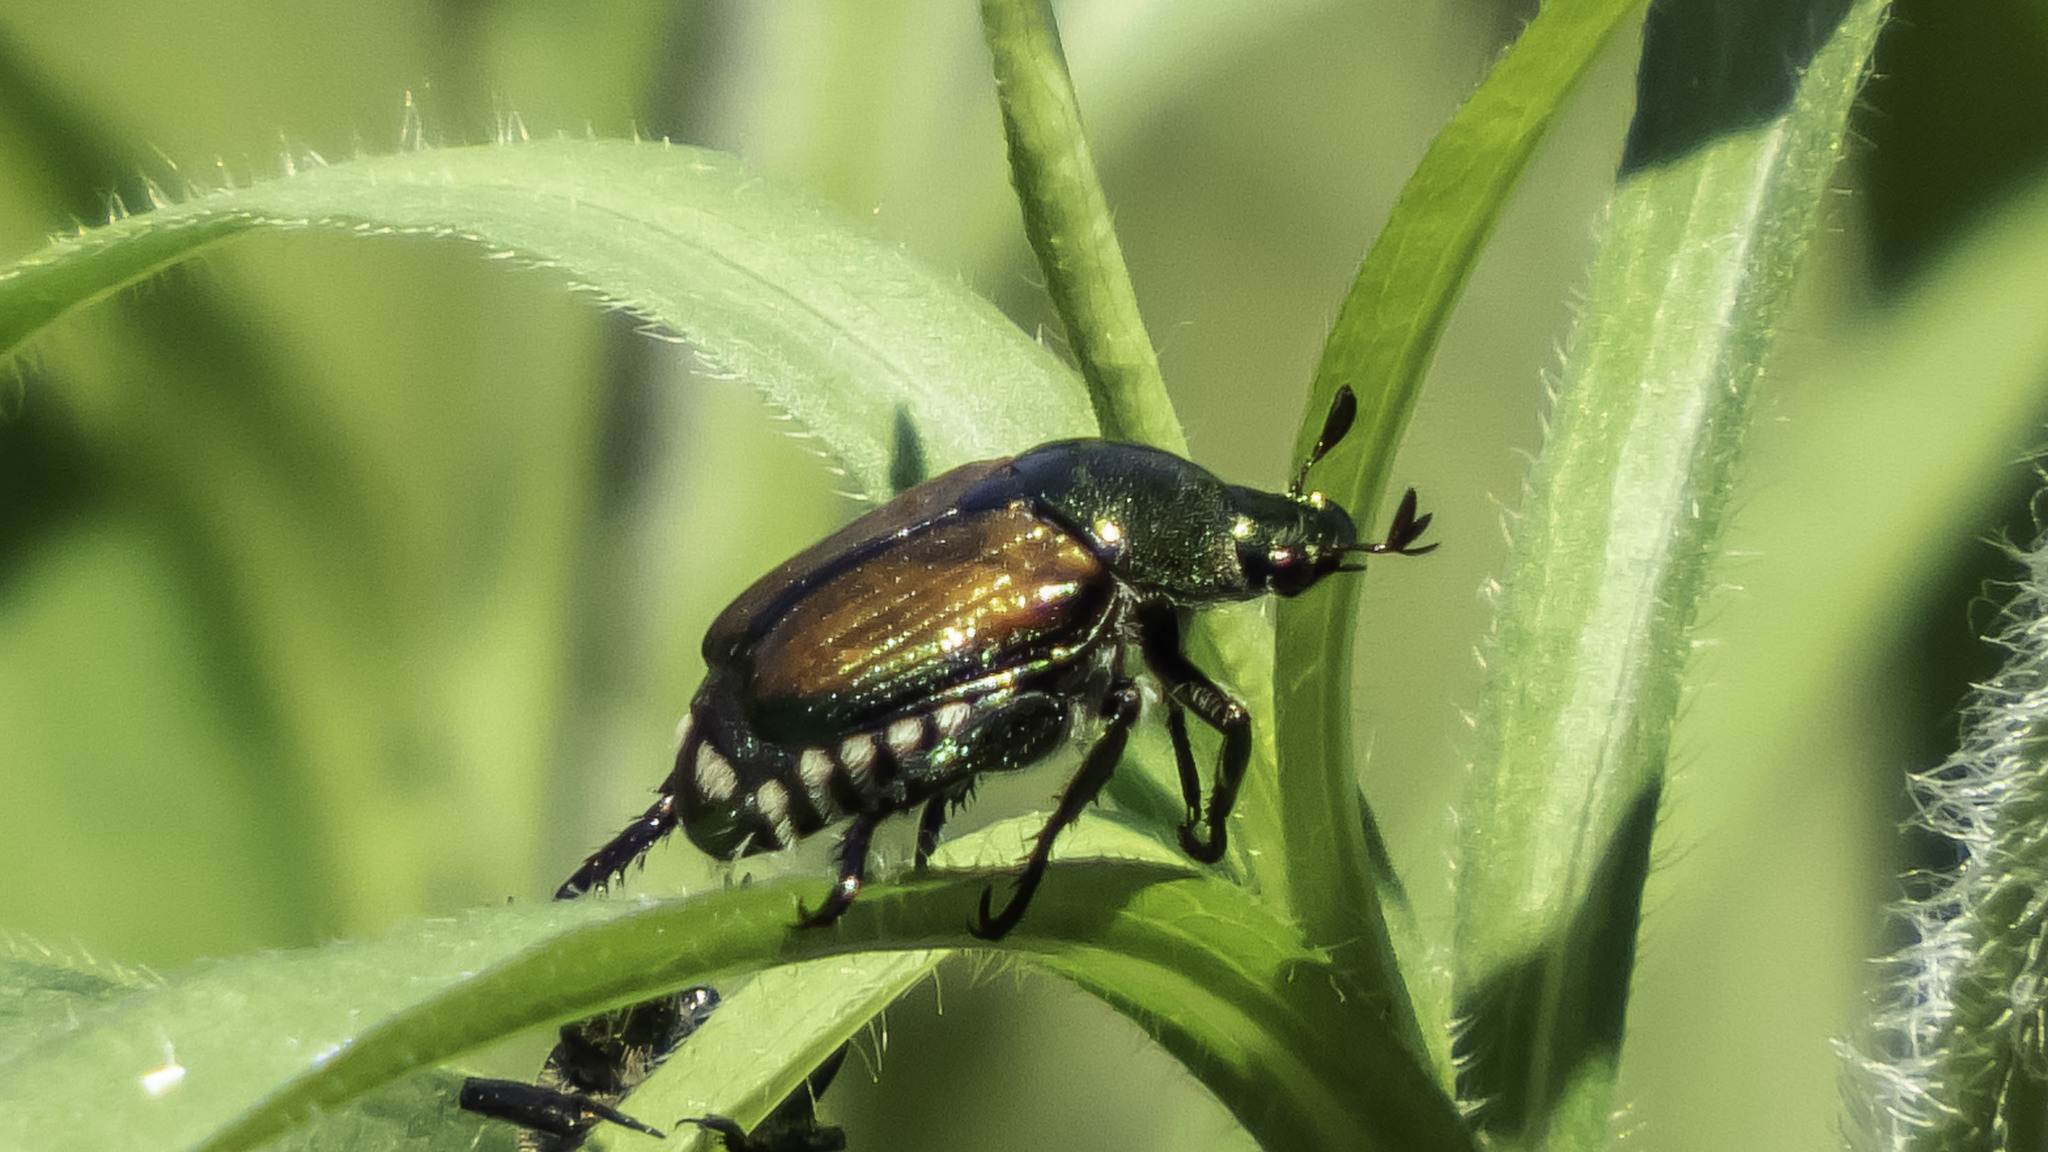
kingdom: Animalia
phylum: Arthropoda
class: Insecta
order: Coleoptera
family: Scarabaeidae
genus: Popillia
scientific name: Popillia japonica
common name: Japanese beetle
